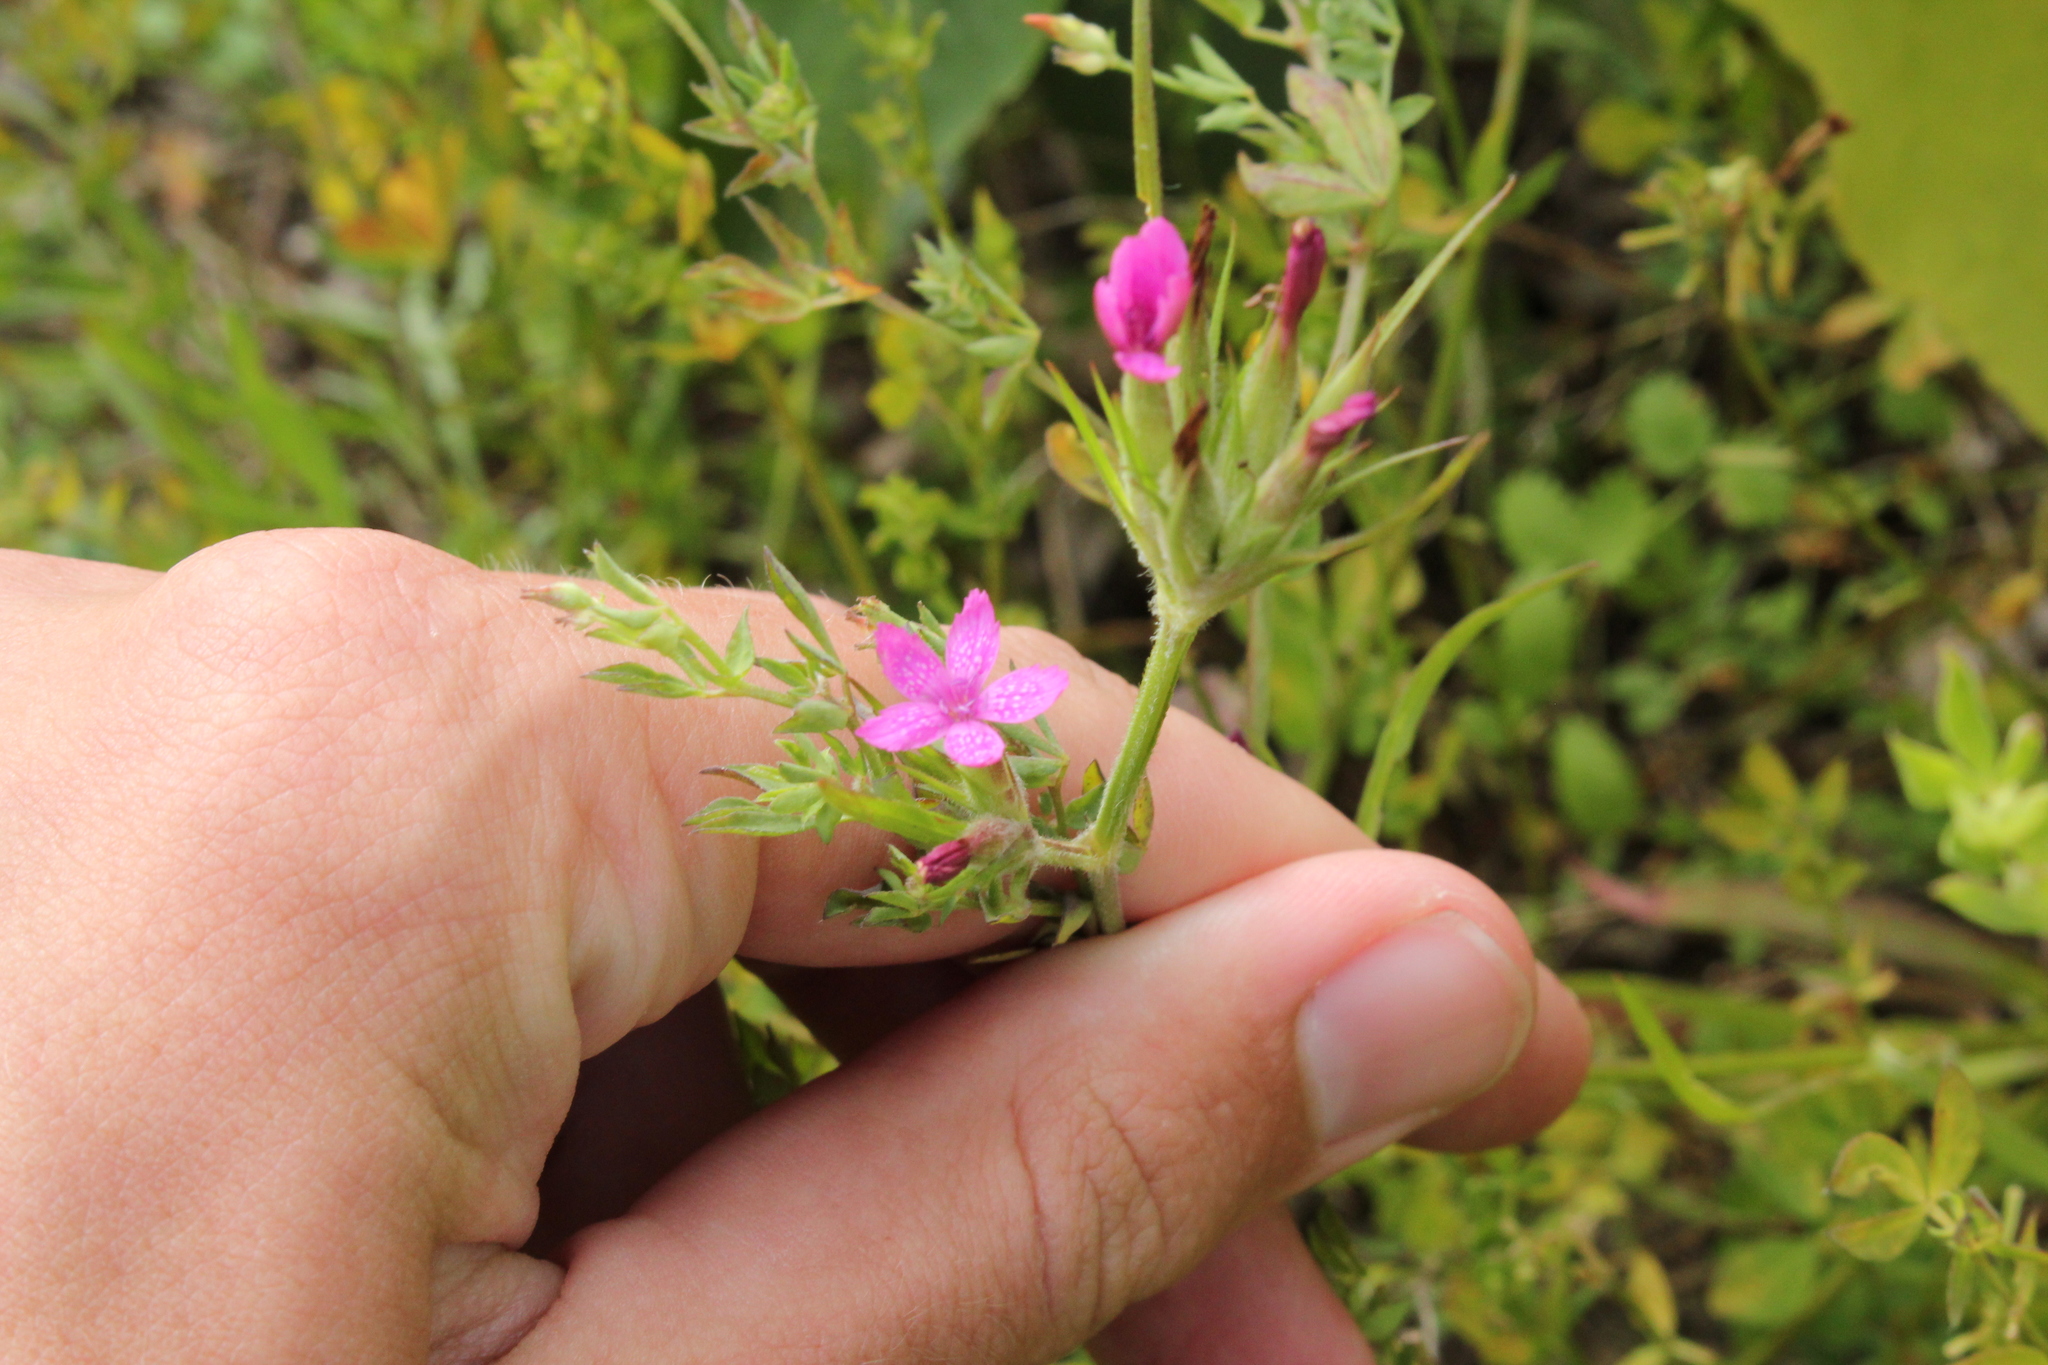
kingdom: Plantae
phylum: Tracheophyta
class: Magnoliopsida
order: Caryophyllales
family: Caryophyllaceae
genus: Dianthus
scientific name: Dianthus armeria
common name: Deptford pink
